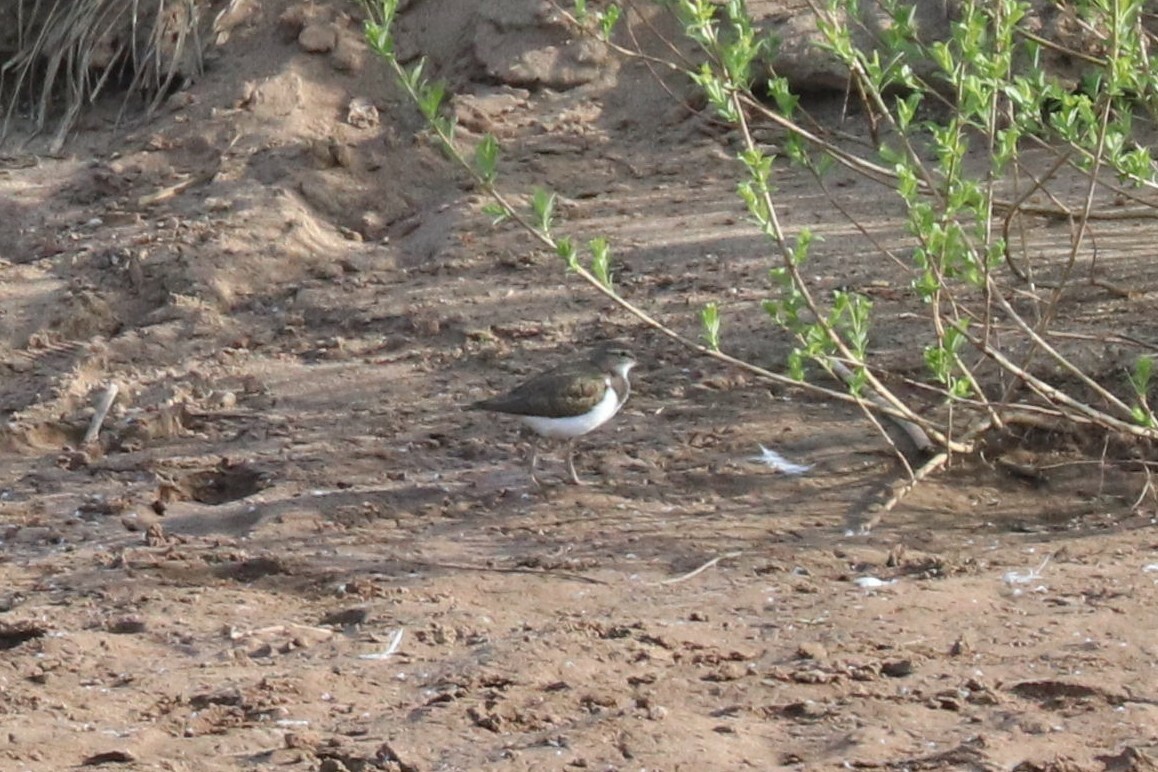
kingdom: Animalia
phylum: Chordata
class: Aves
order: Charadriiformes
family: Scolopacidae
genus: Actitis
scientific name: Actitis hypoleucos
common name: Common sandpiper
